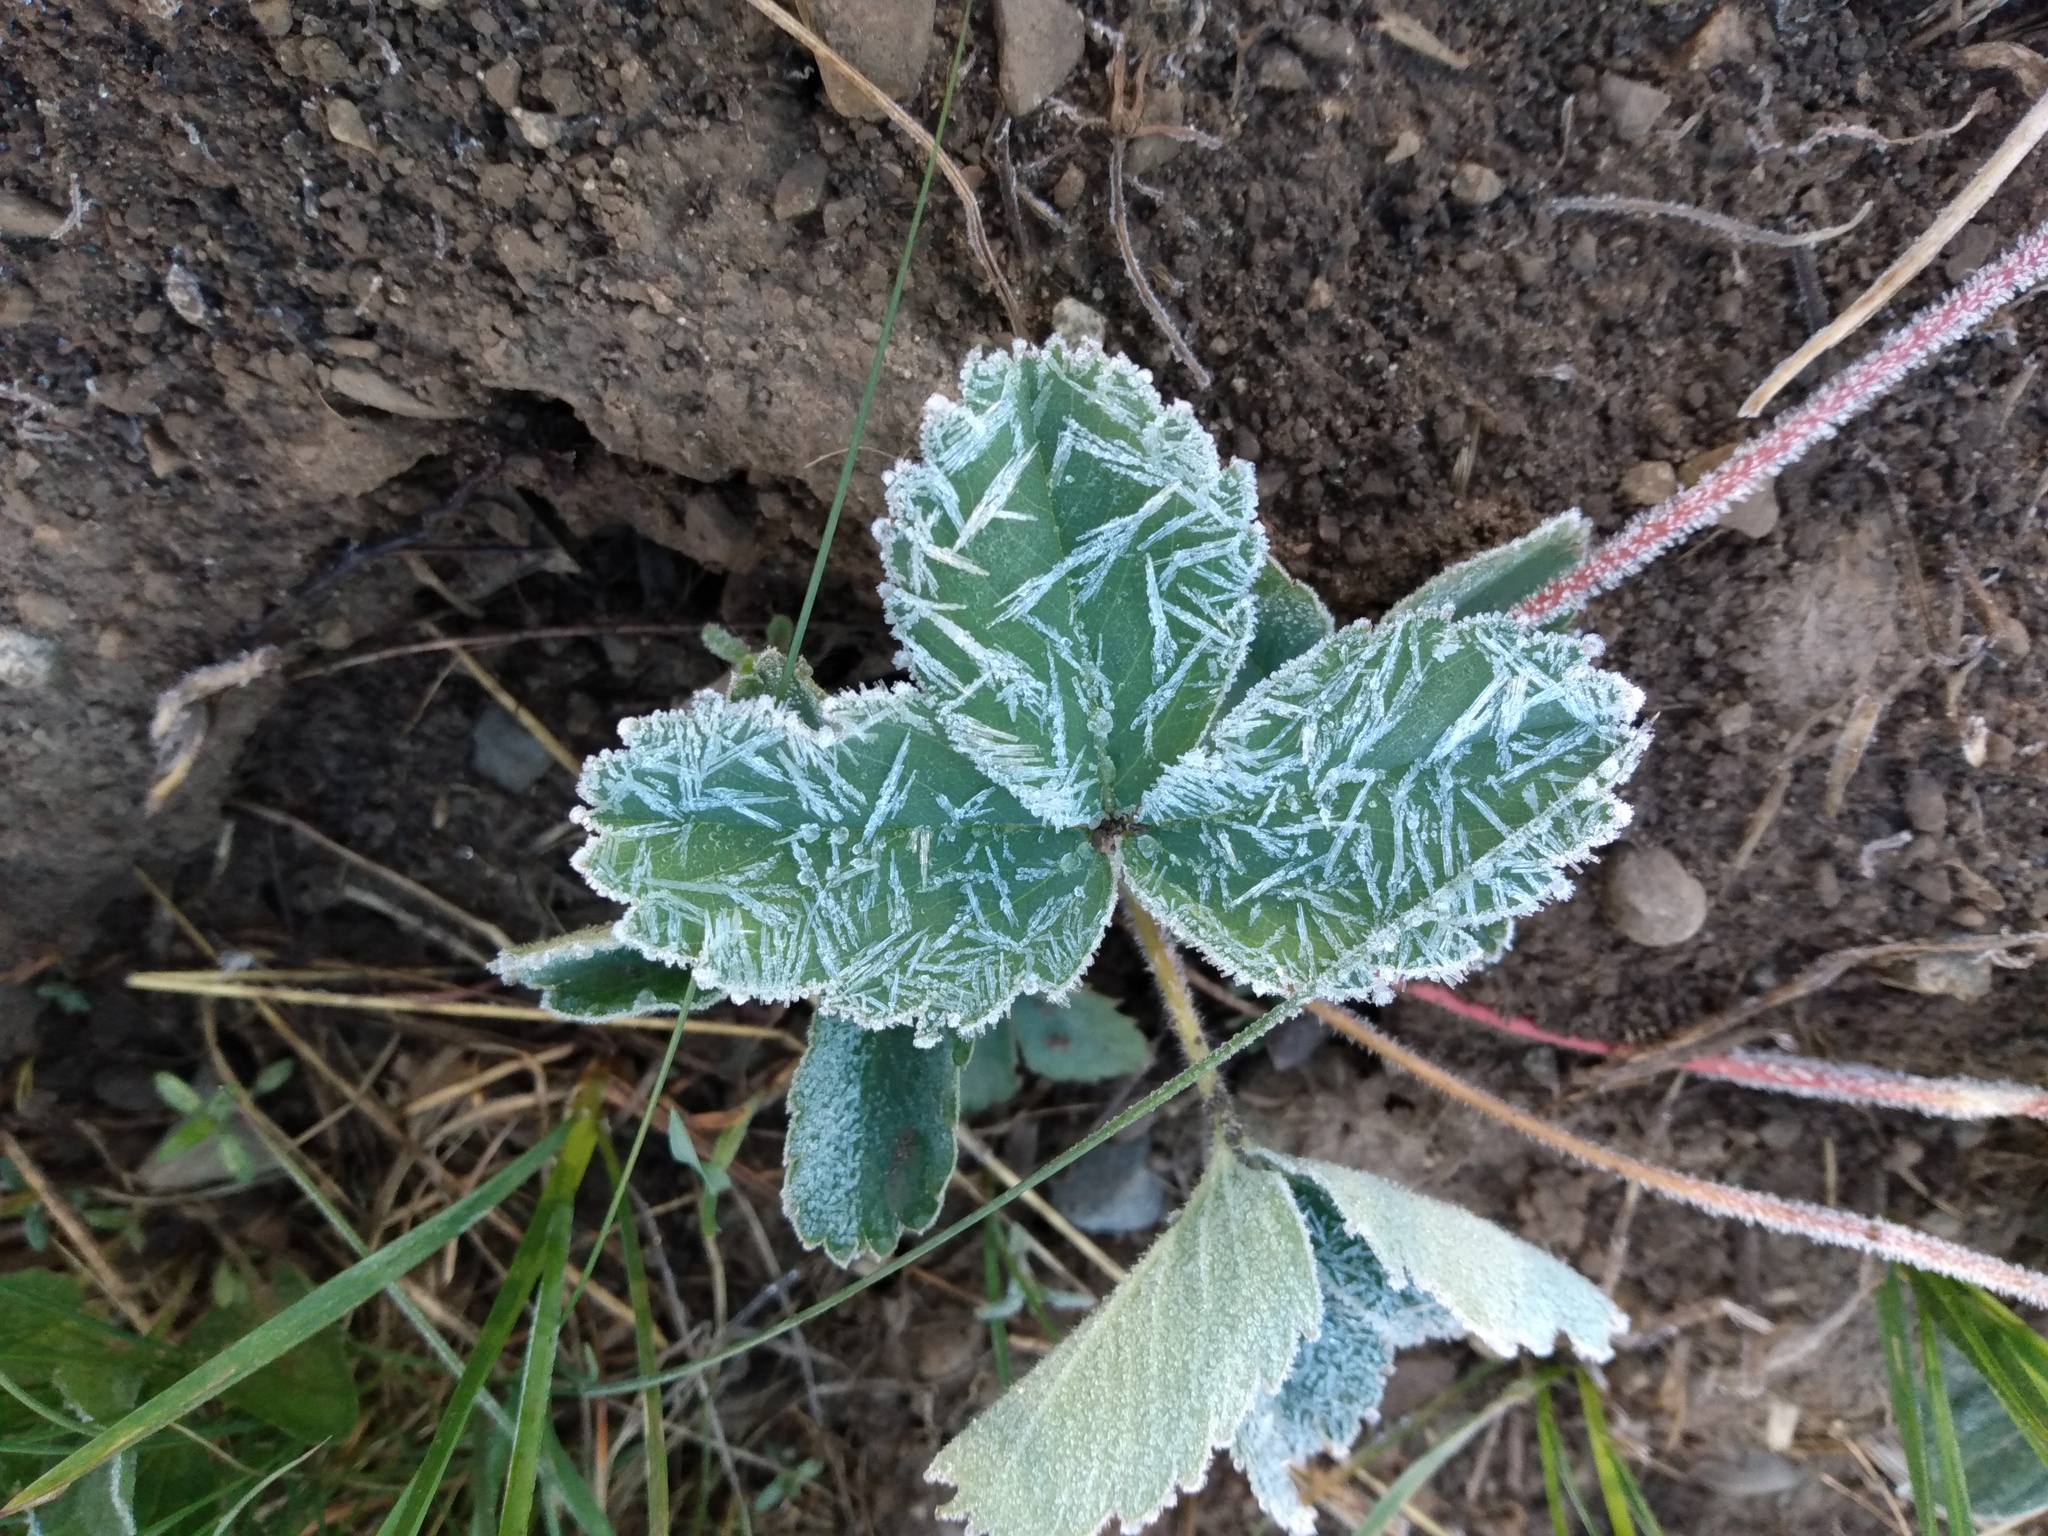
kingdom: Plantae
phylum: Tracheophyta
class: Magnoliopsida
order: Rosales
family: Rosaceae
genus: Fragaria
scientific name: Fragaria virginiana
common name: Thickleaved wild strawberry
